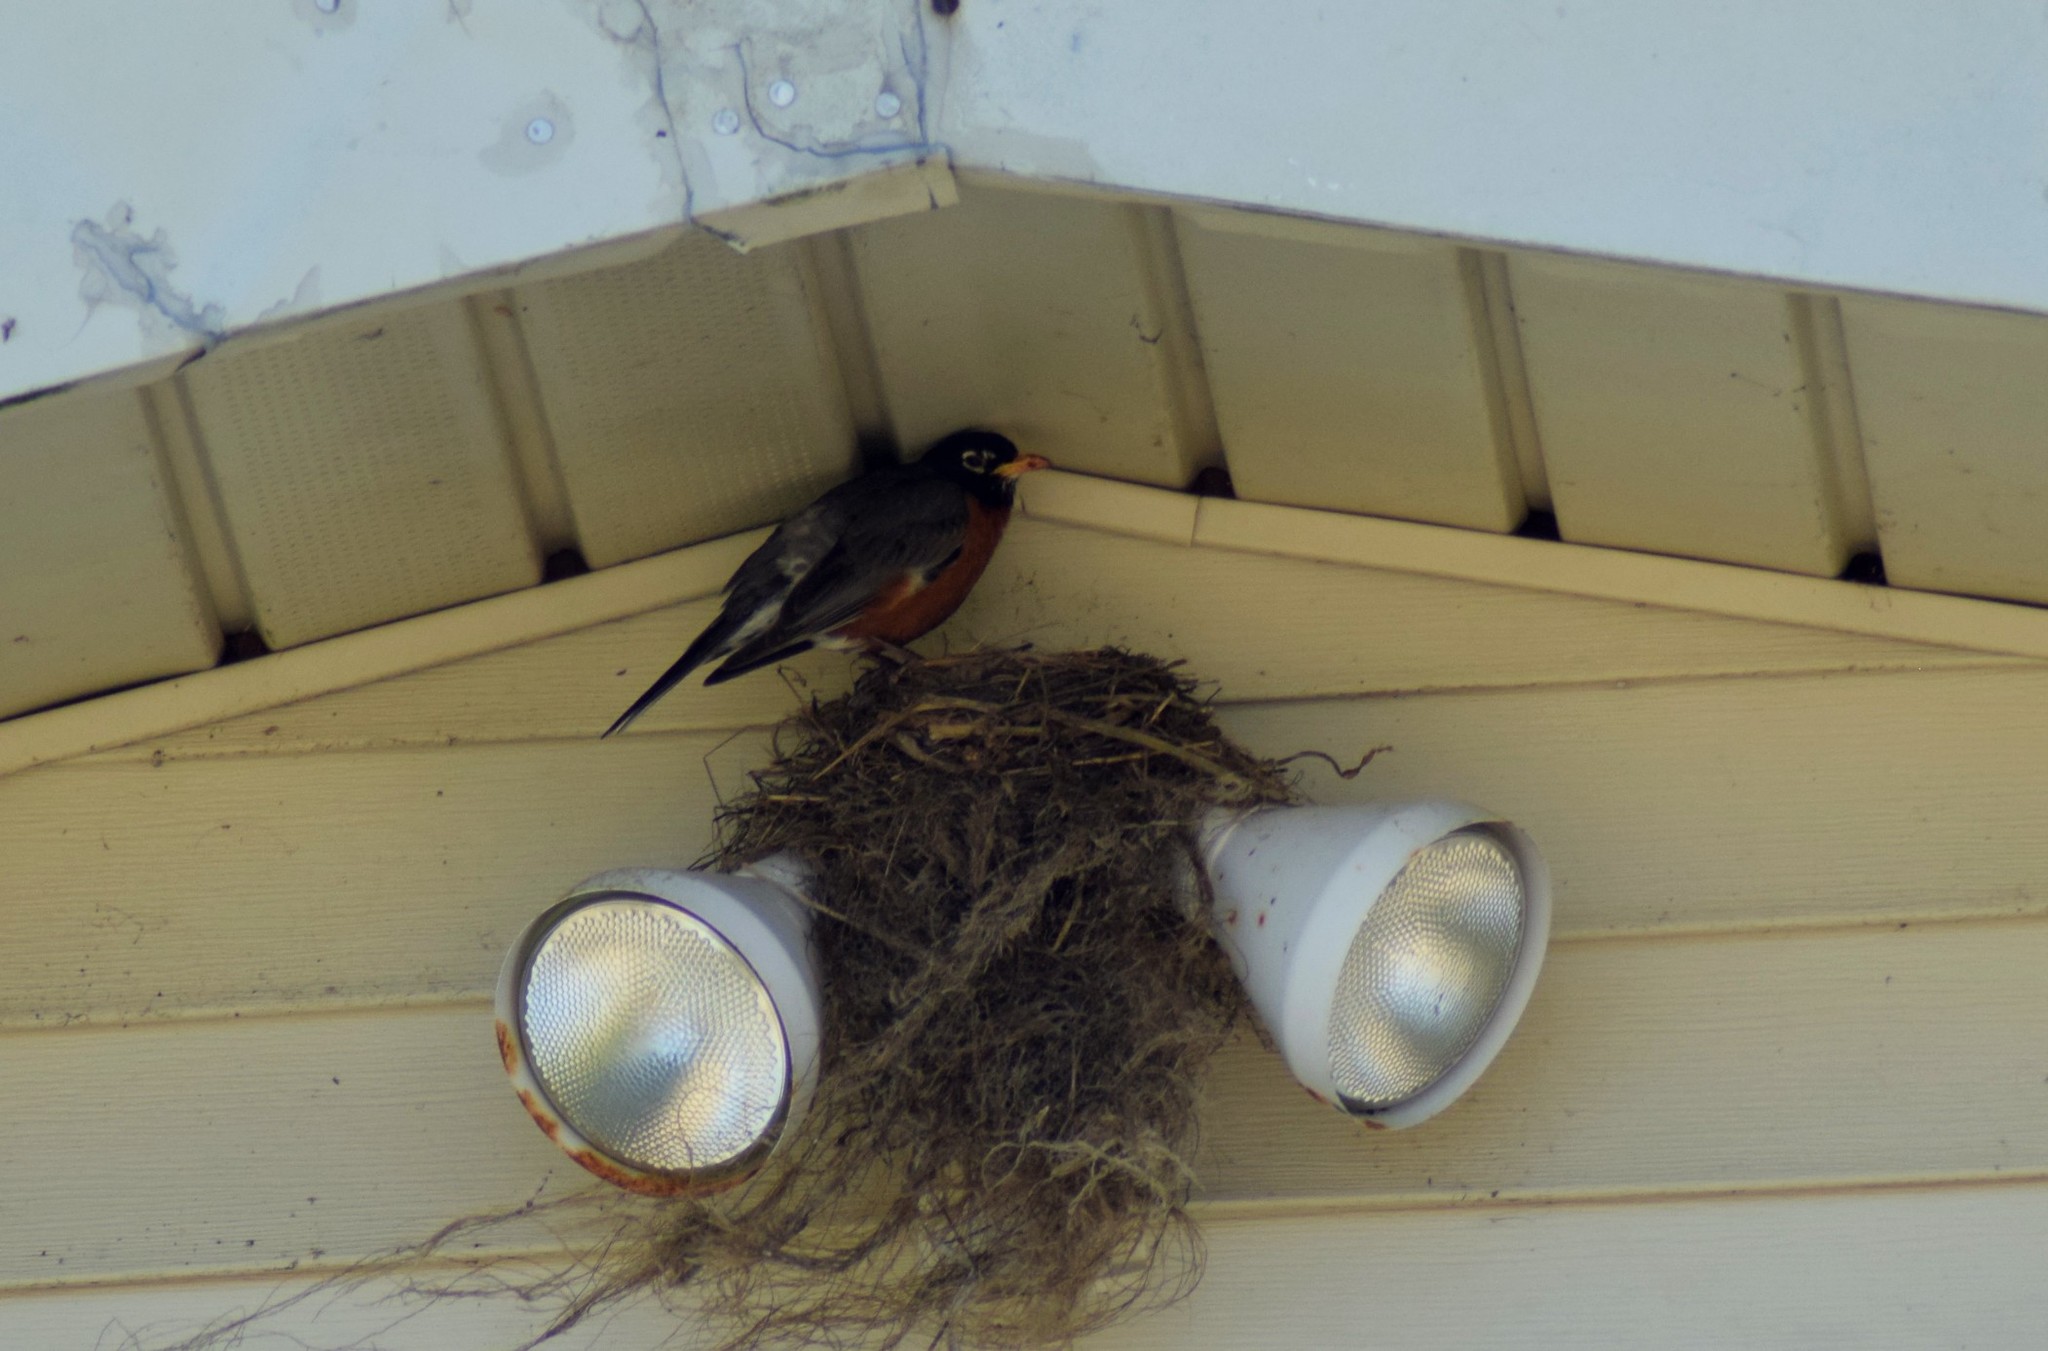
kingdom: Animalia
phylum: Chordata
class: Aves
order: Passeriformes
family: Turdidae
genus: Turdus
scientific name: Turdus migratorius
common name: American robin
